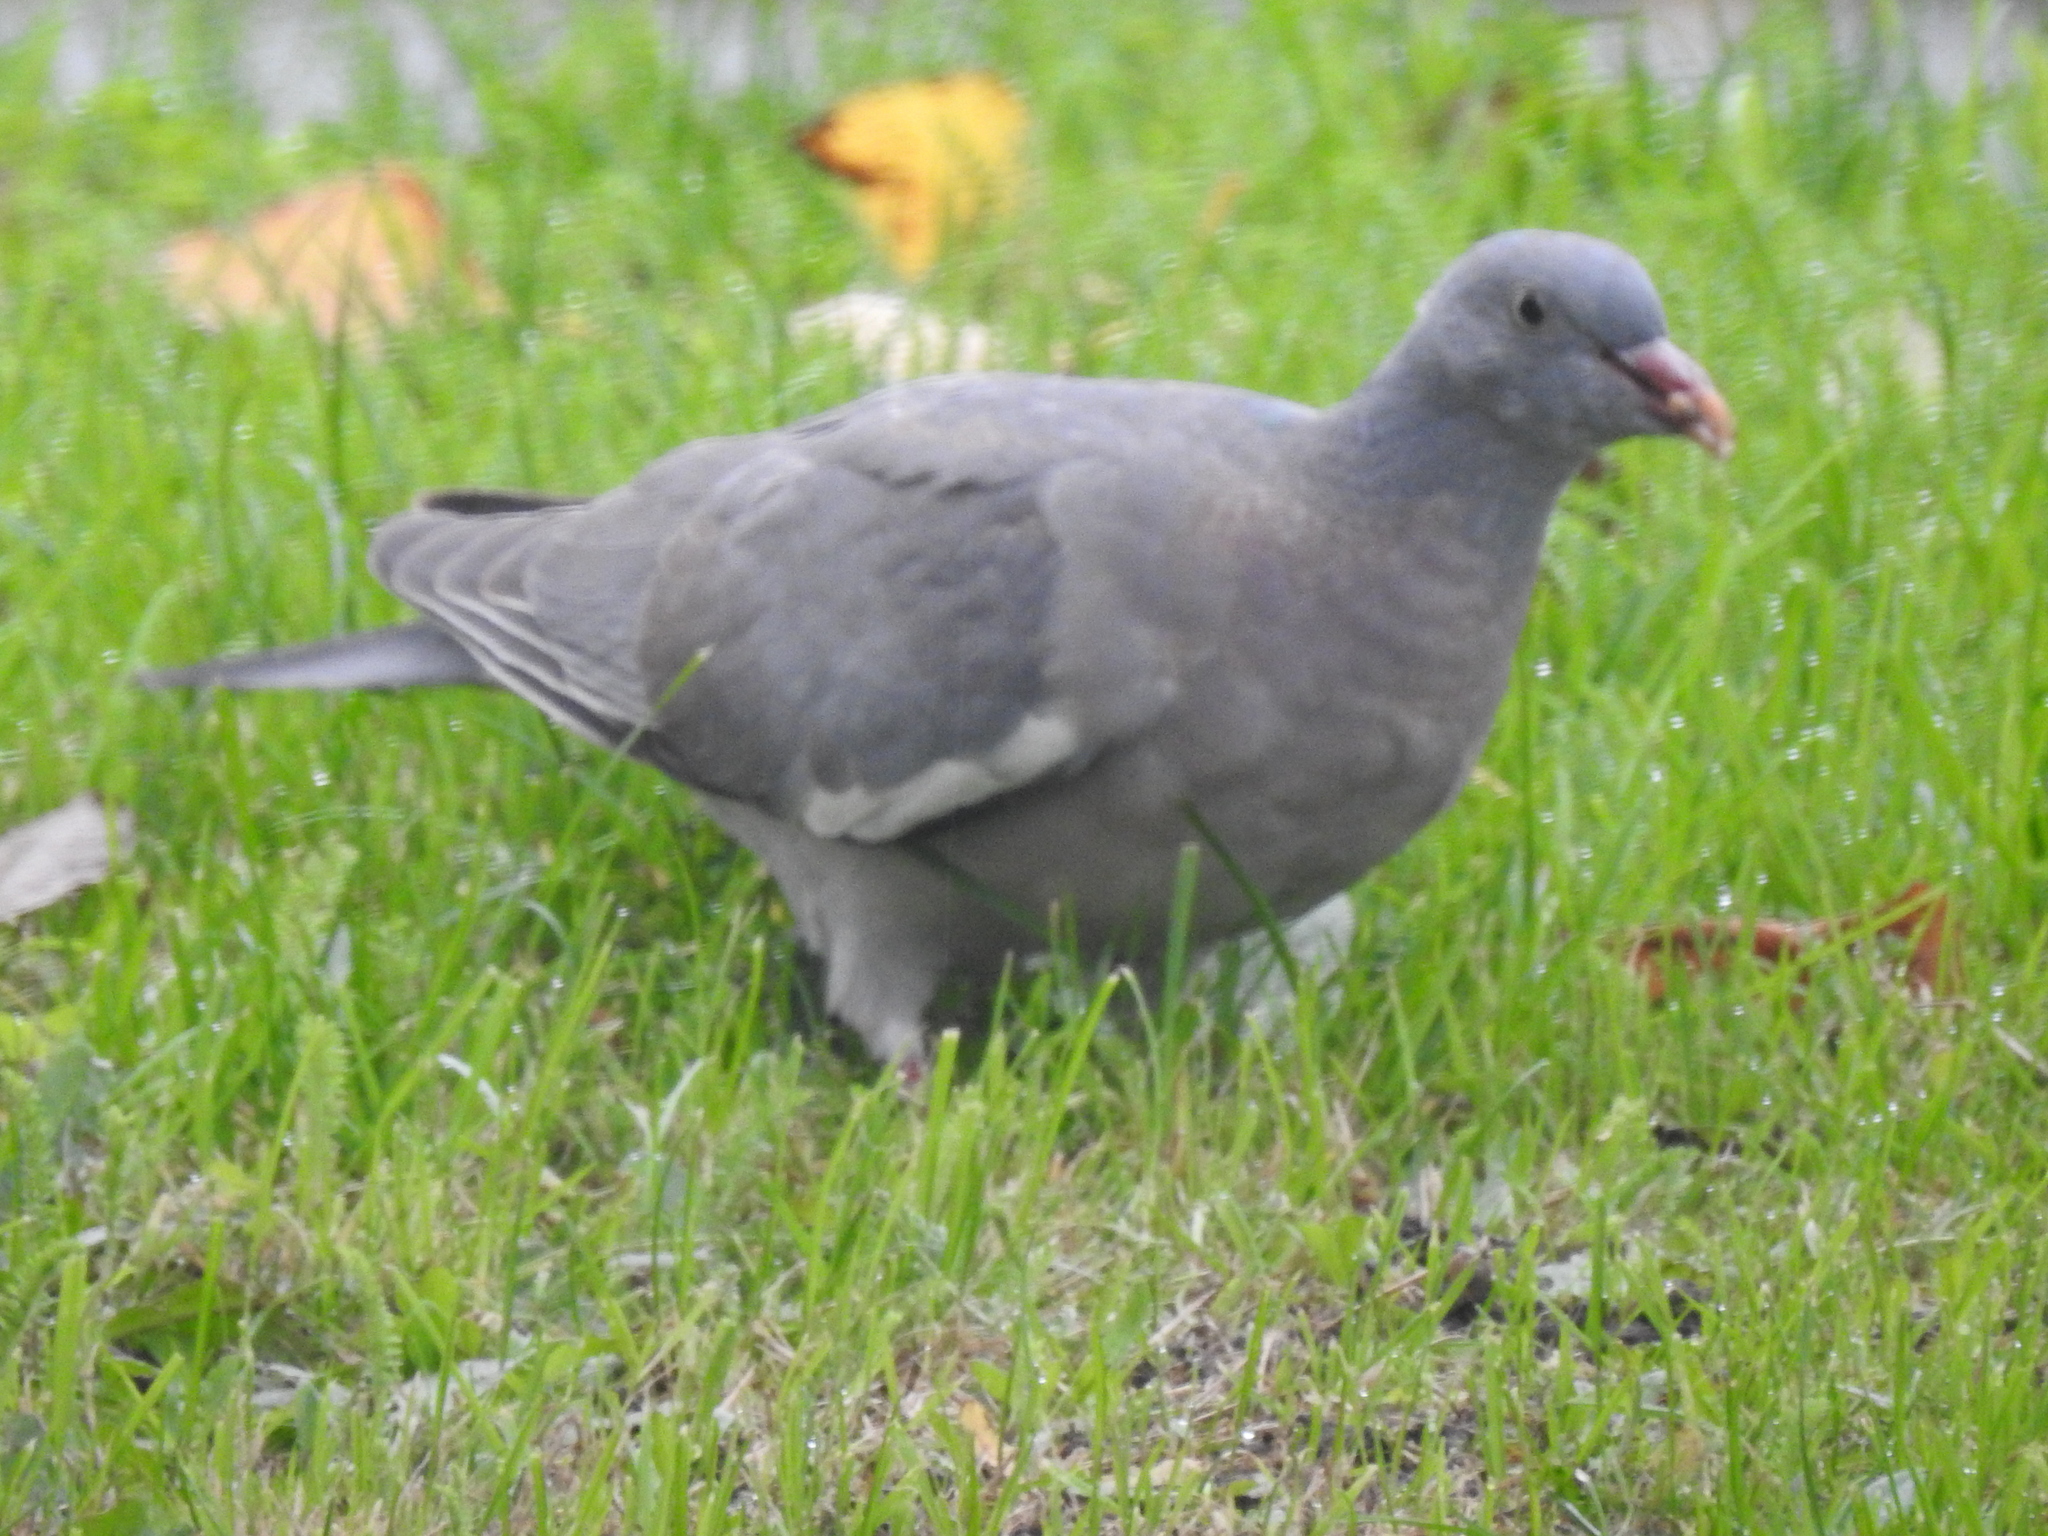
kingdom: Animalia
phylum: Chordata
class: Aves
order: Columbiformes
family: Columbidae
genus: Columba
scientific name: Columba palumbus
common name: Common wood pigeon
